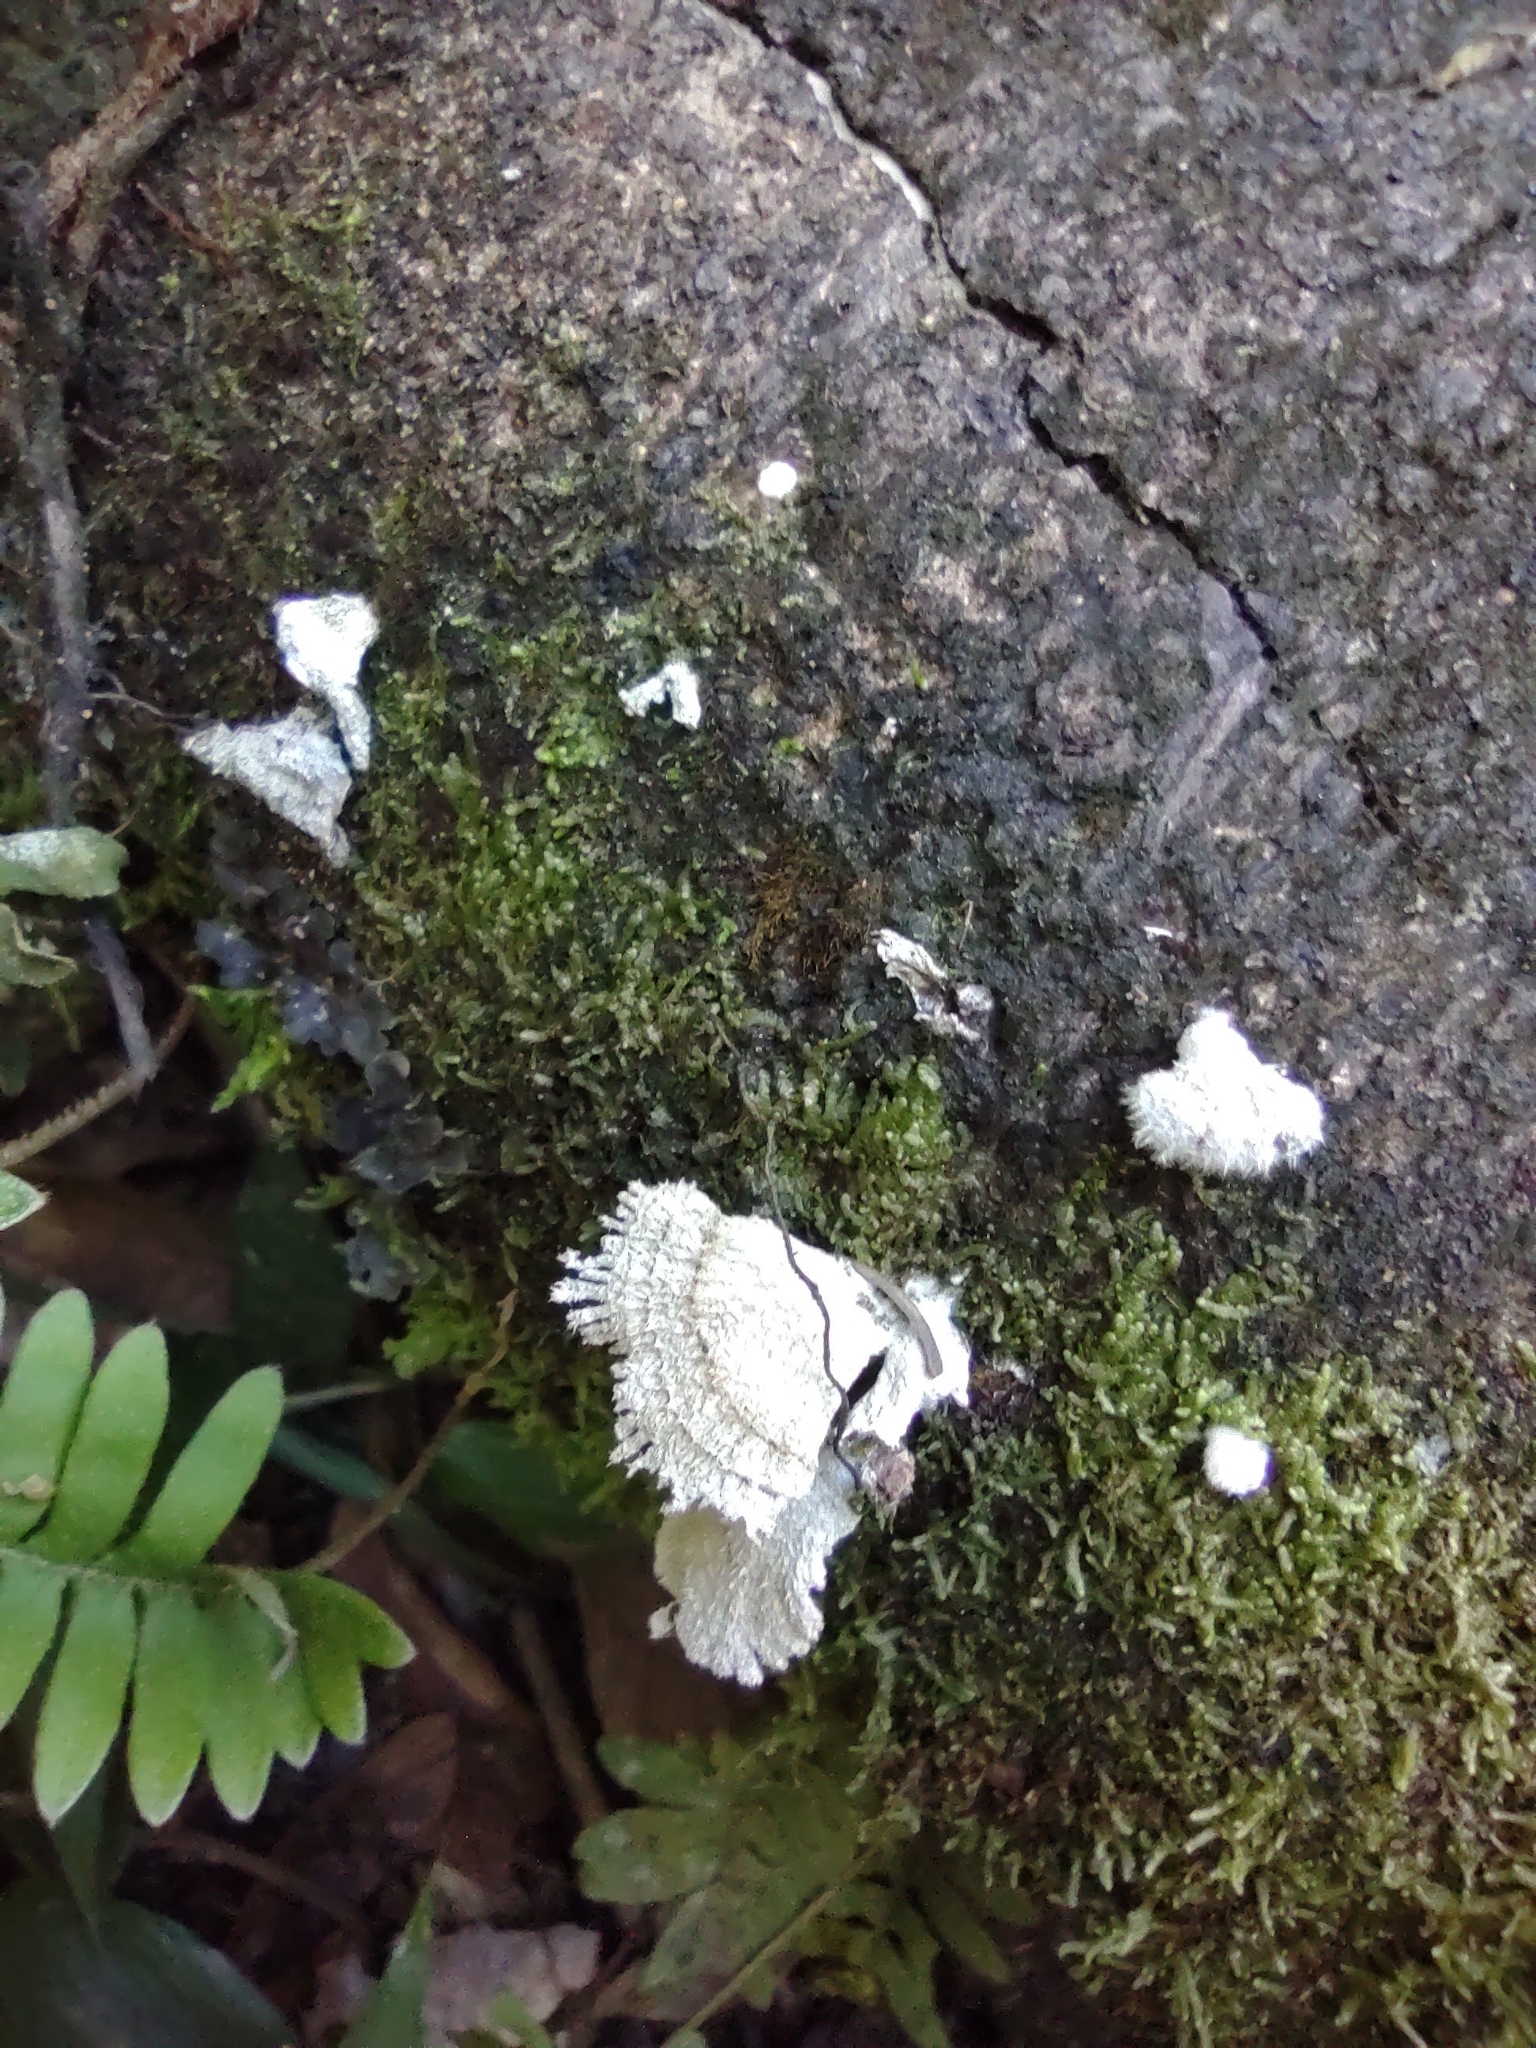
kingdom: Fungi
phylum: Basidiomycota
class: Agaricomycetes
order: Agaricales
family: Schizophyllaceae
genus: Schizophyllum
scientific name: Schizophyllum commune
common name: Common porecrust
